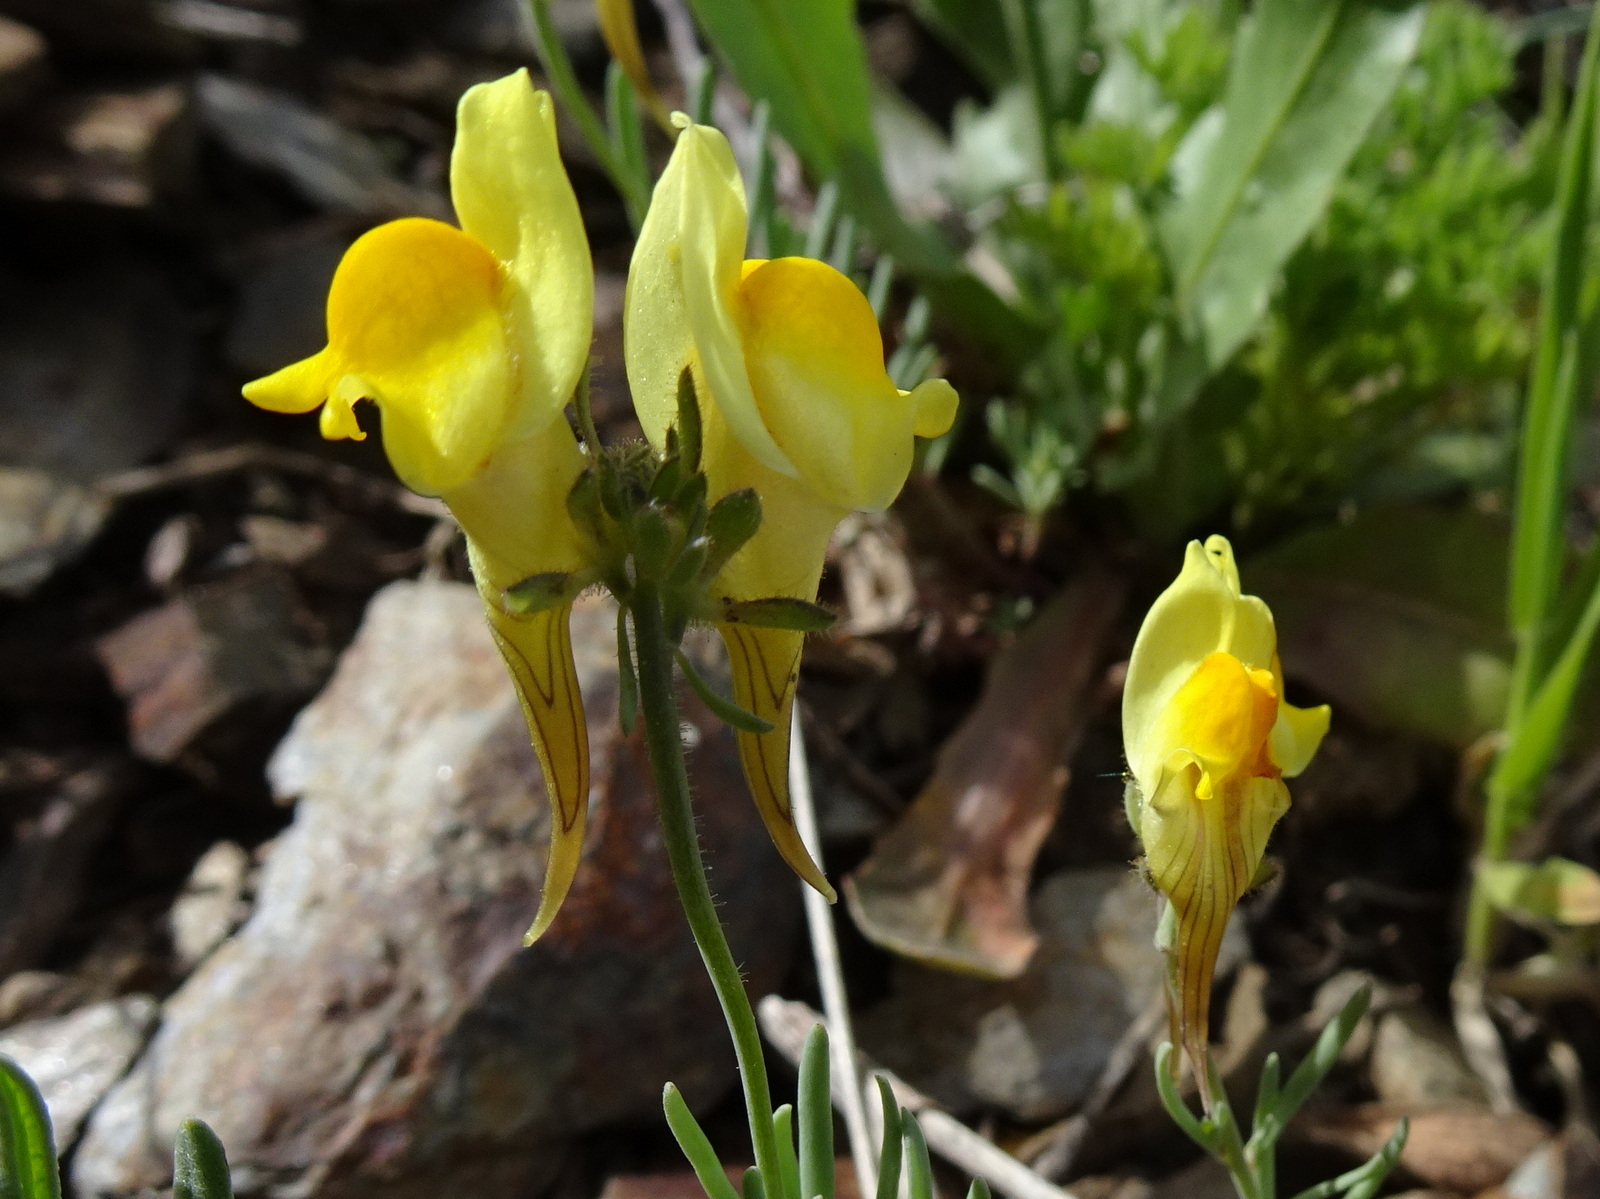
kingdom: Plantae
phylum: Tracheophyta
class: Magnoliopsida
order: Lamiales
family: Plantaginaceae
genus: Linaria
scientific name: Linaria supina
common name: Prostrate toadflax
